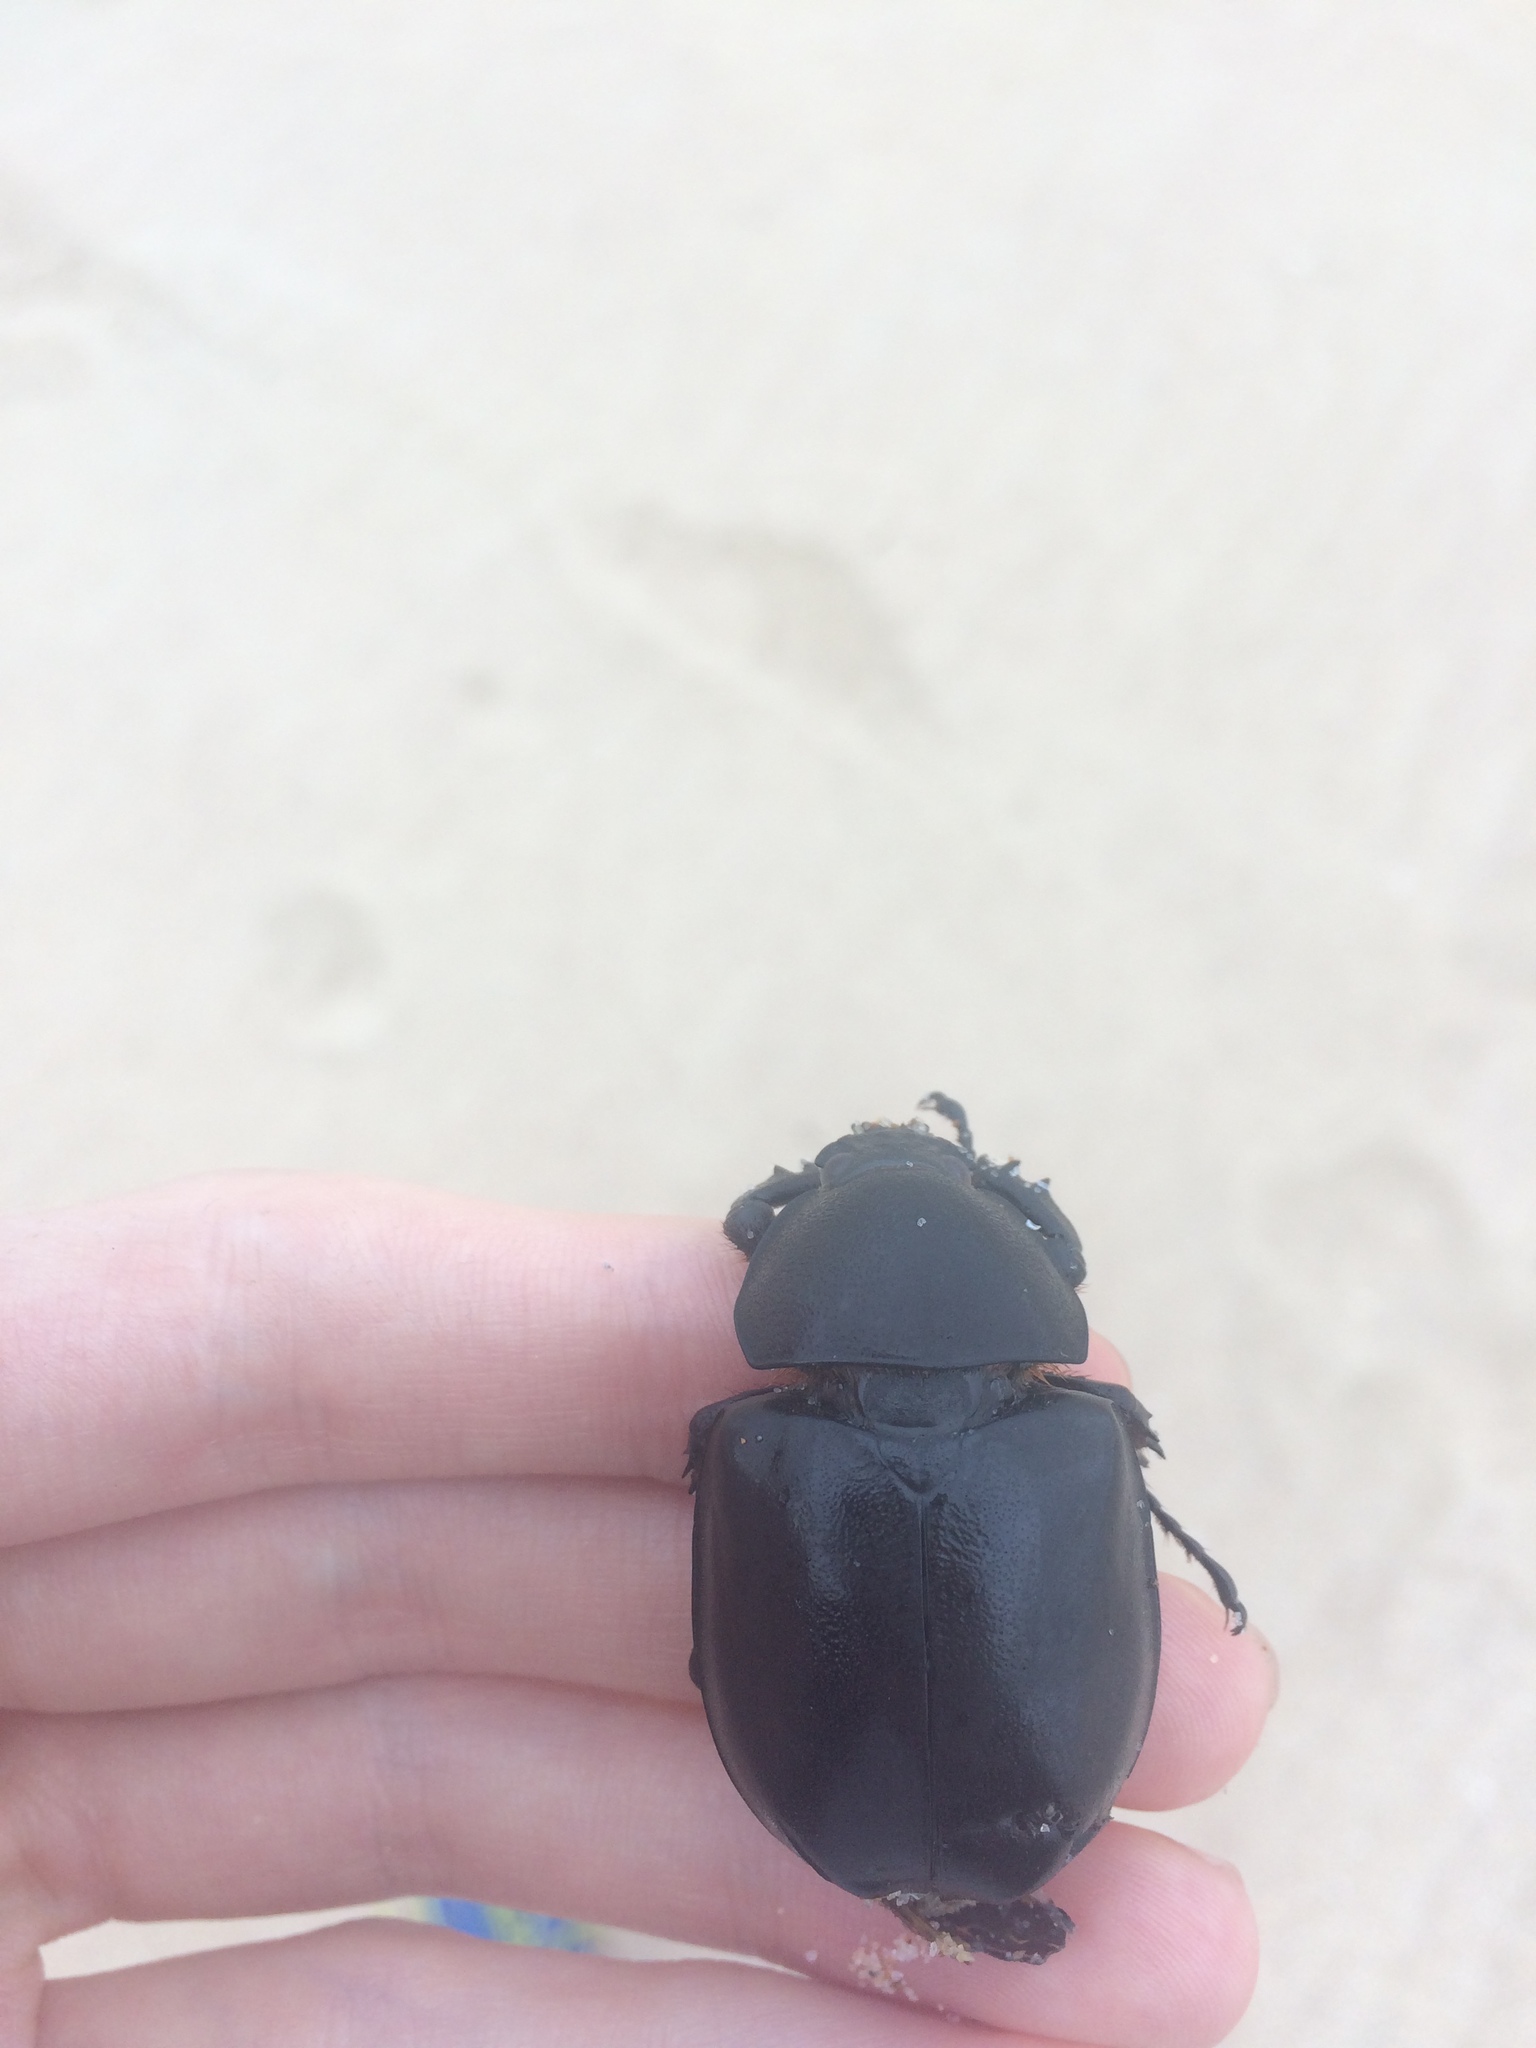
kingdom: Animalia
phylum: Arthropoda
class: Insecta
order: Coleoptera
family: Scarabaeidae
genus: Xylotrupes
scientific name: Xylotrupes australicus
